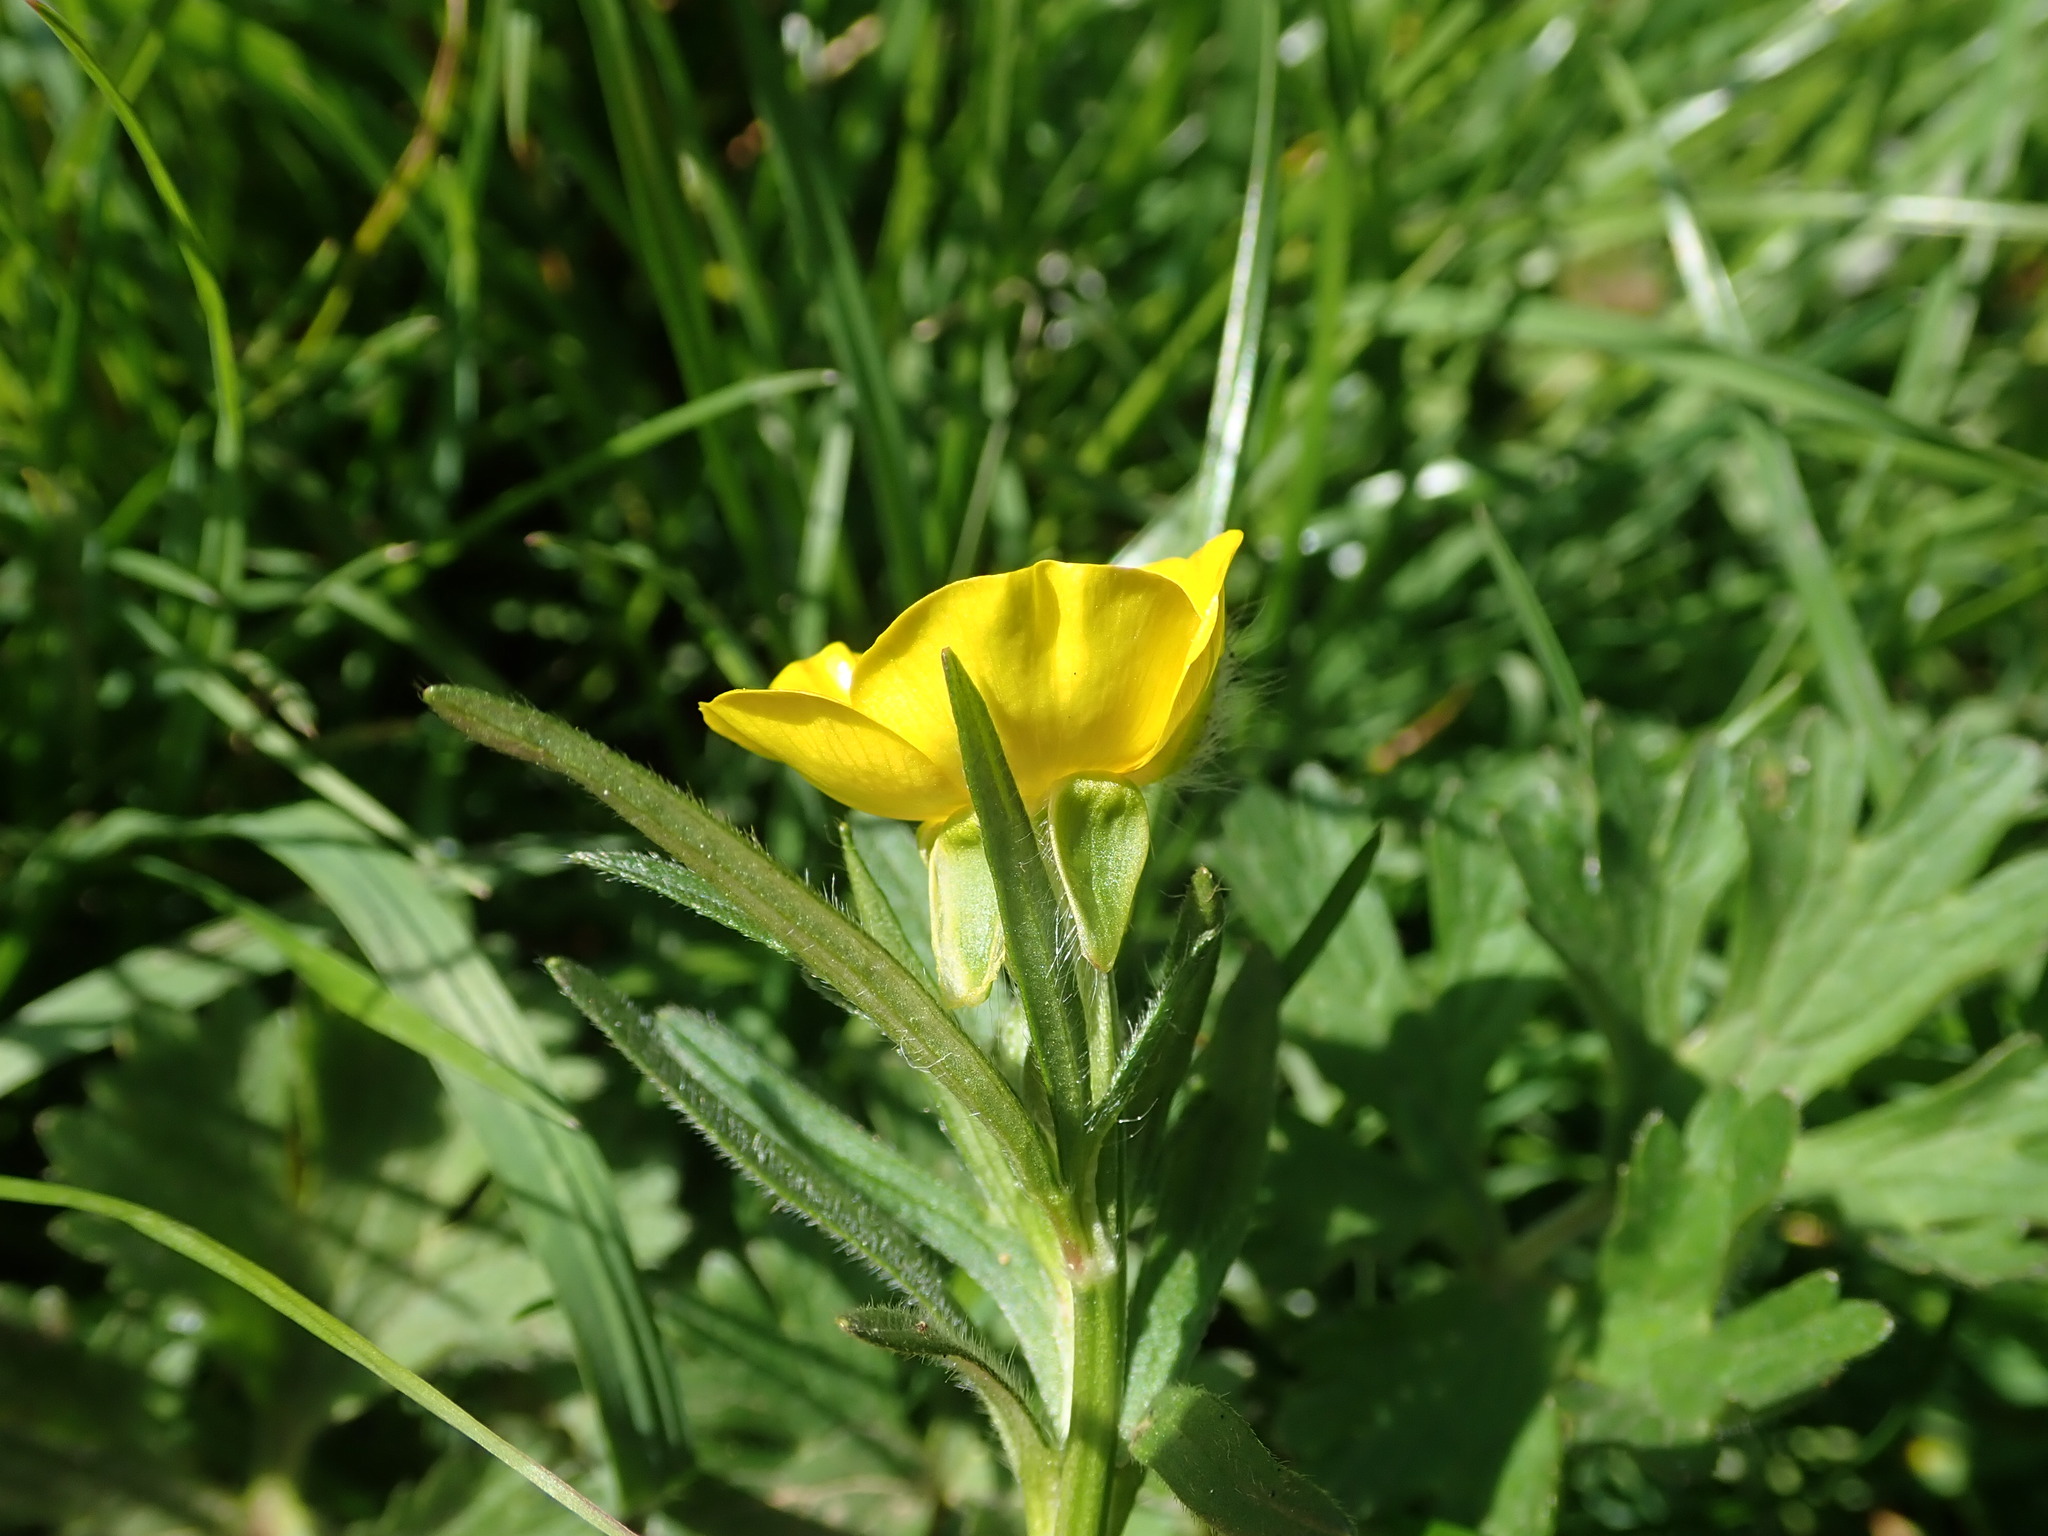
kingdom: Plantae
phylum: Tracheophyta
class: Magnoliopsida
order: Ranunculales
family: Ranunculaceae
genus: Ranunculus
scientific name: Ranunculus bulbosus
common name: Bulbous buttercup
